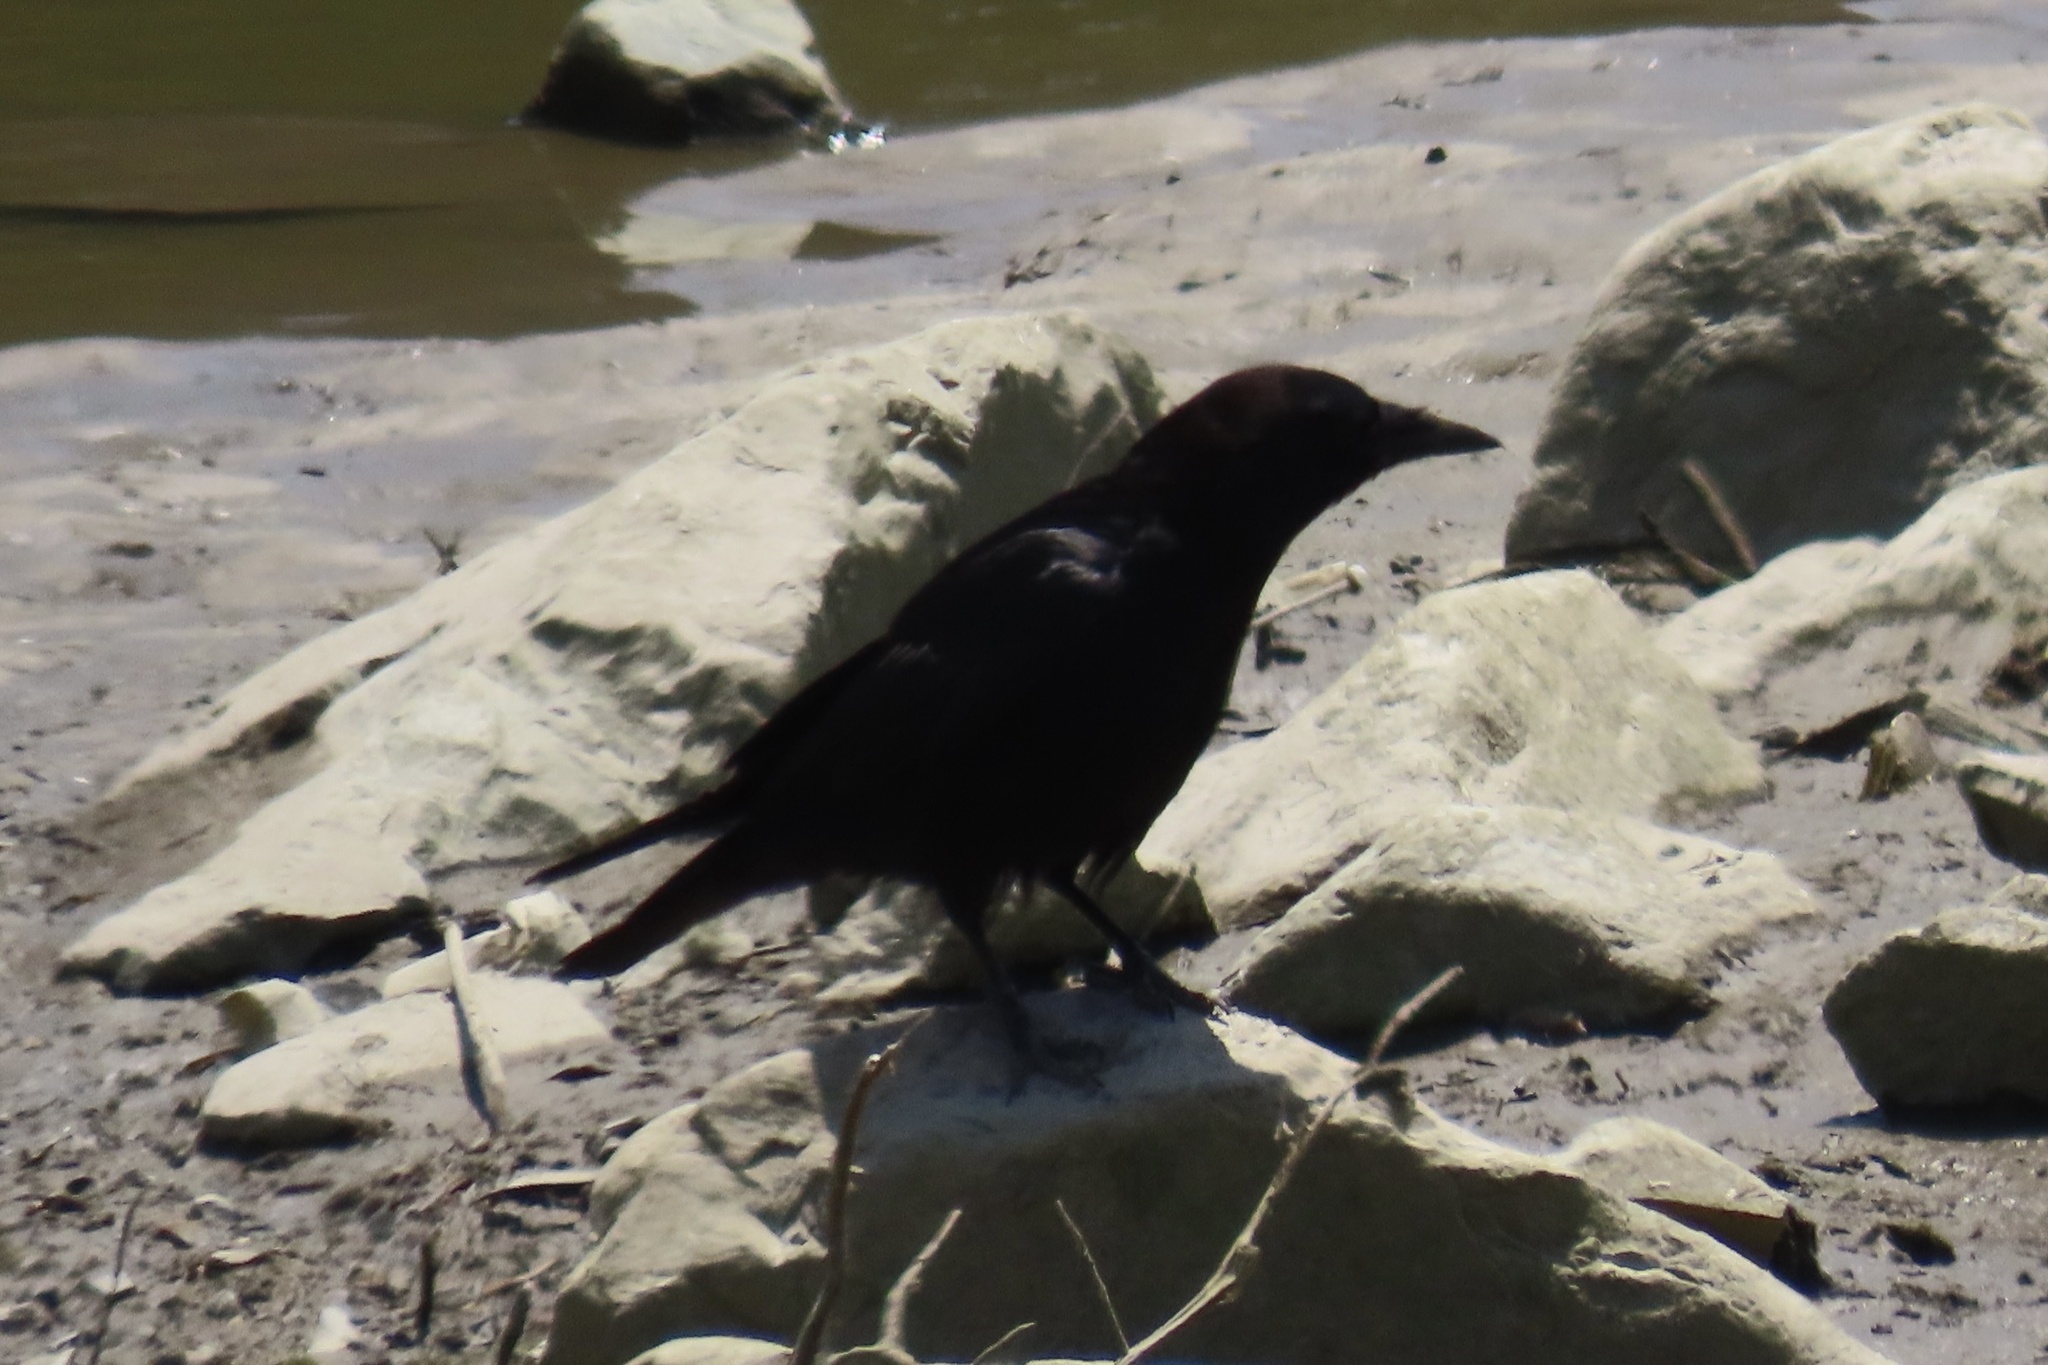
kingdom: Animalia
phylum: Chordata
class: Aves
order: Passeriformes
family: Corvidae
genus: Corvus
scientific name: Corvus brachyrhynchos
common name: American crow
